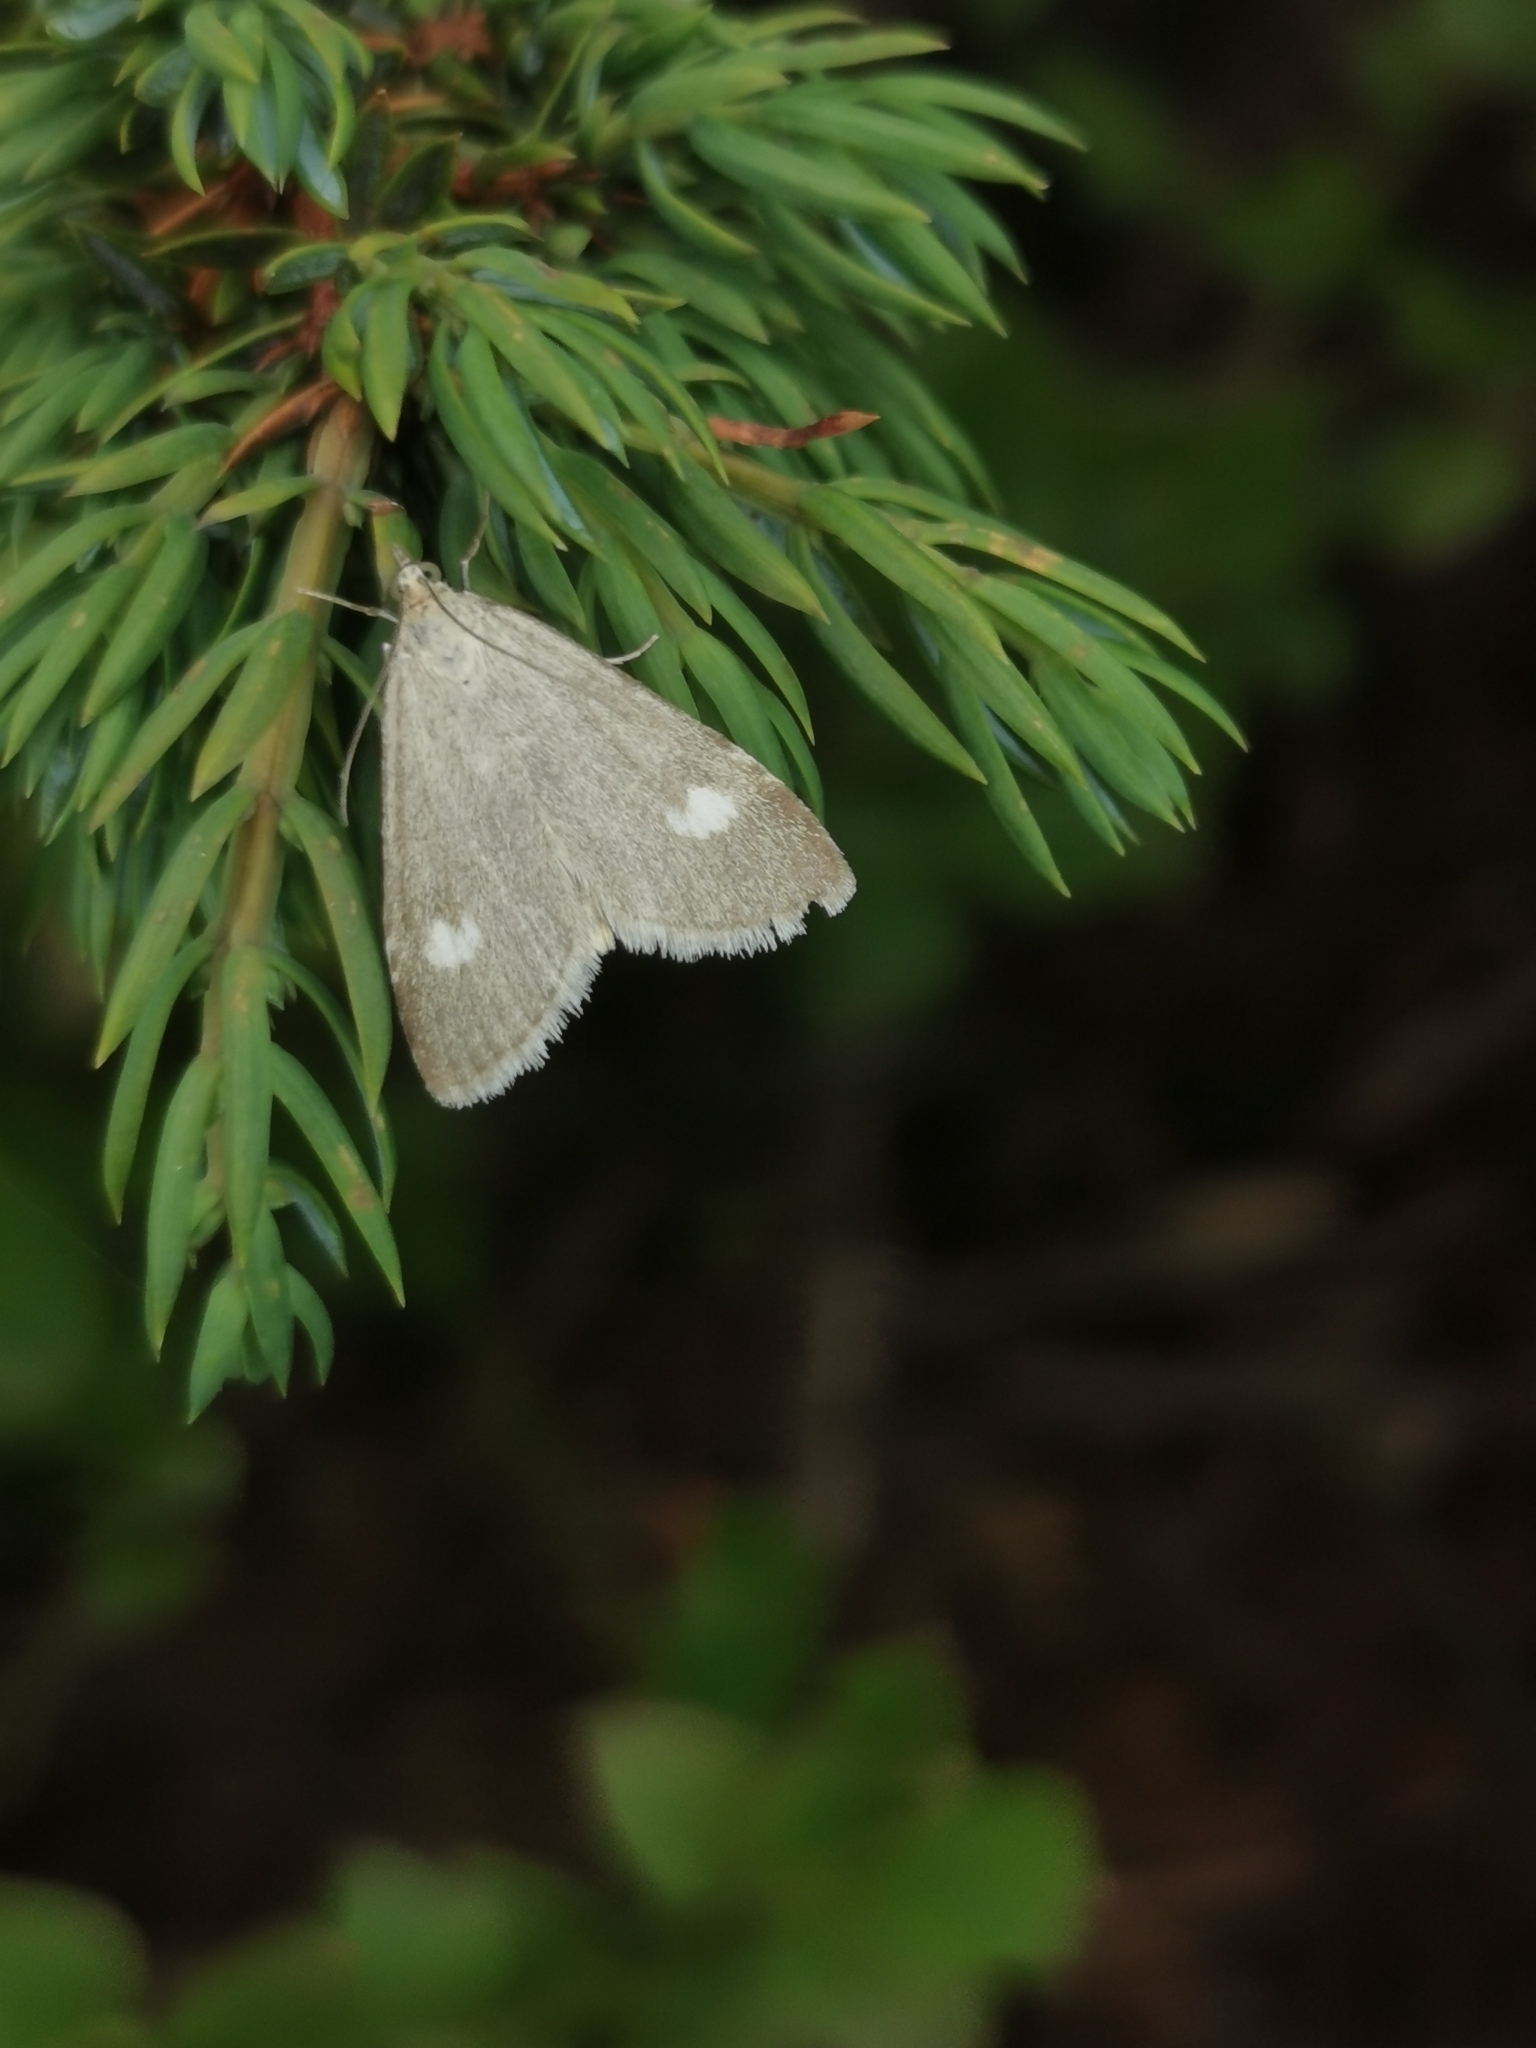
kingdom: Animalia
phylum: Arthropoda
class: Insecta
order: Lepidoptera
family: Crambidae
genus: Pyrausta
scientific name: Pyrausta alpinalis
